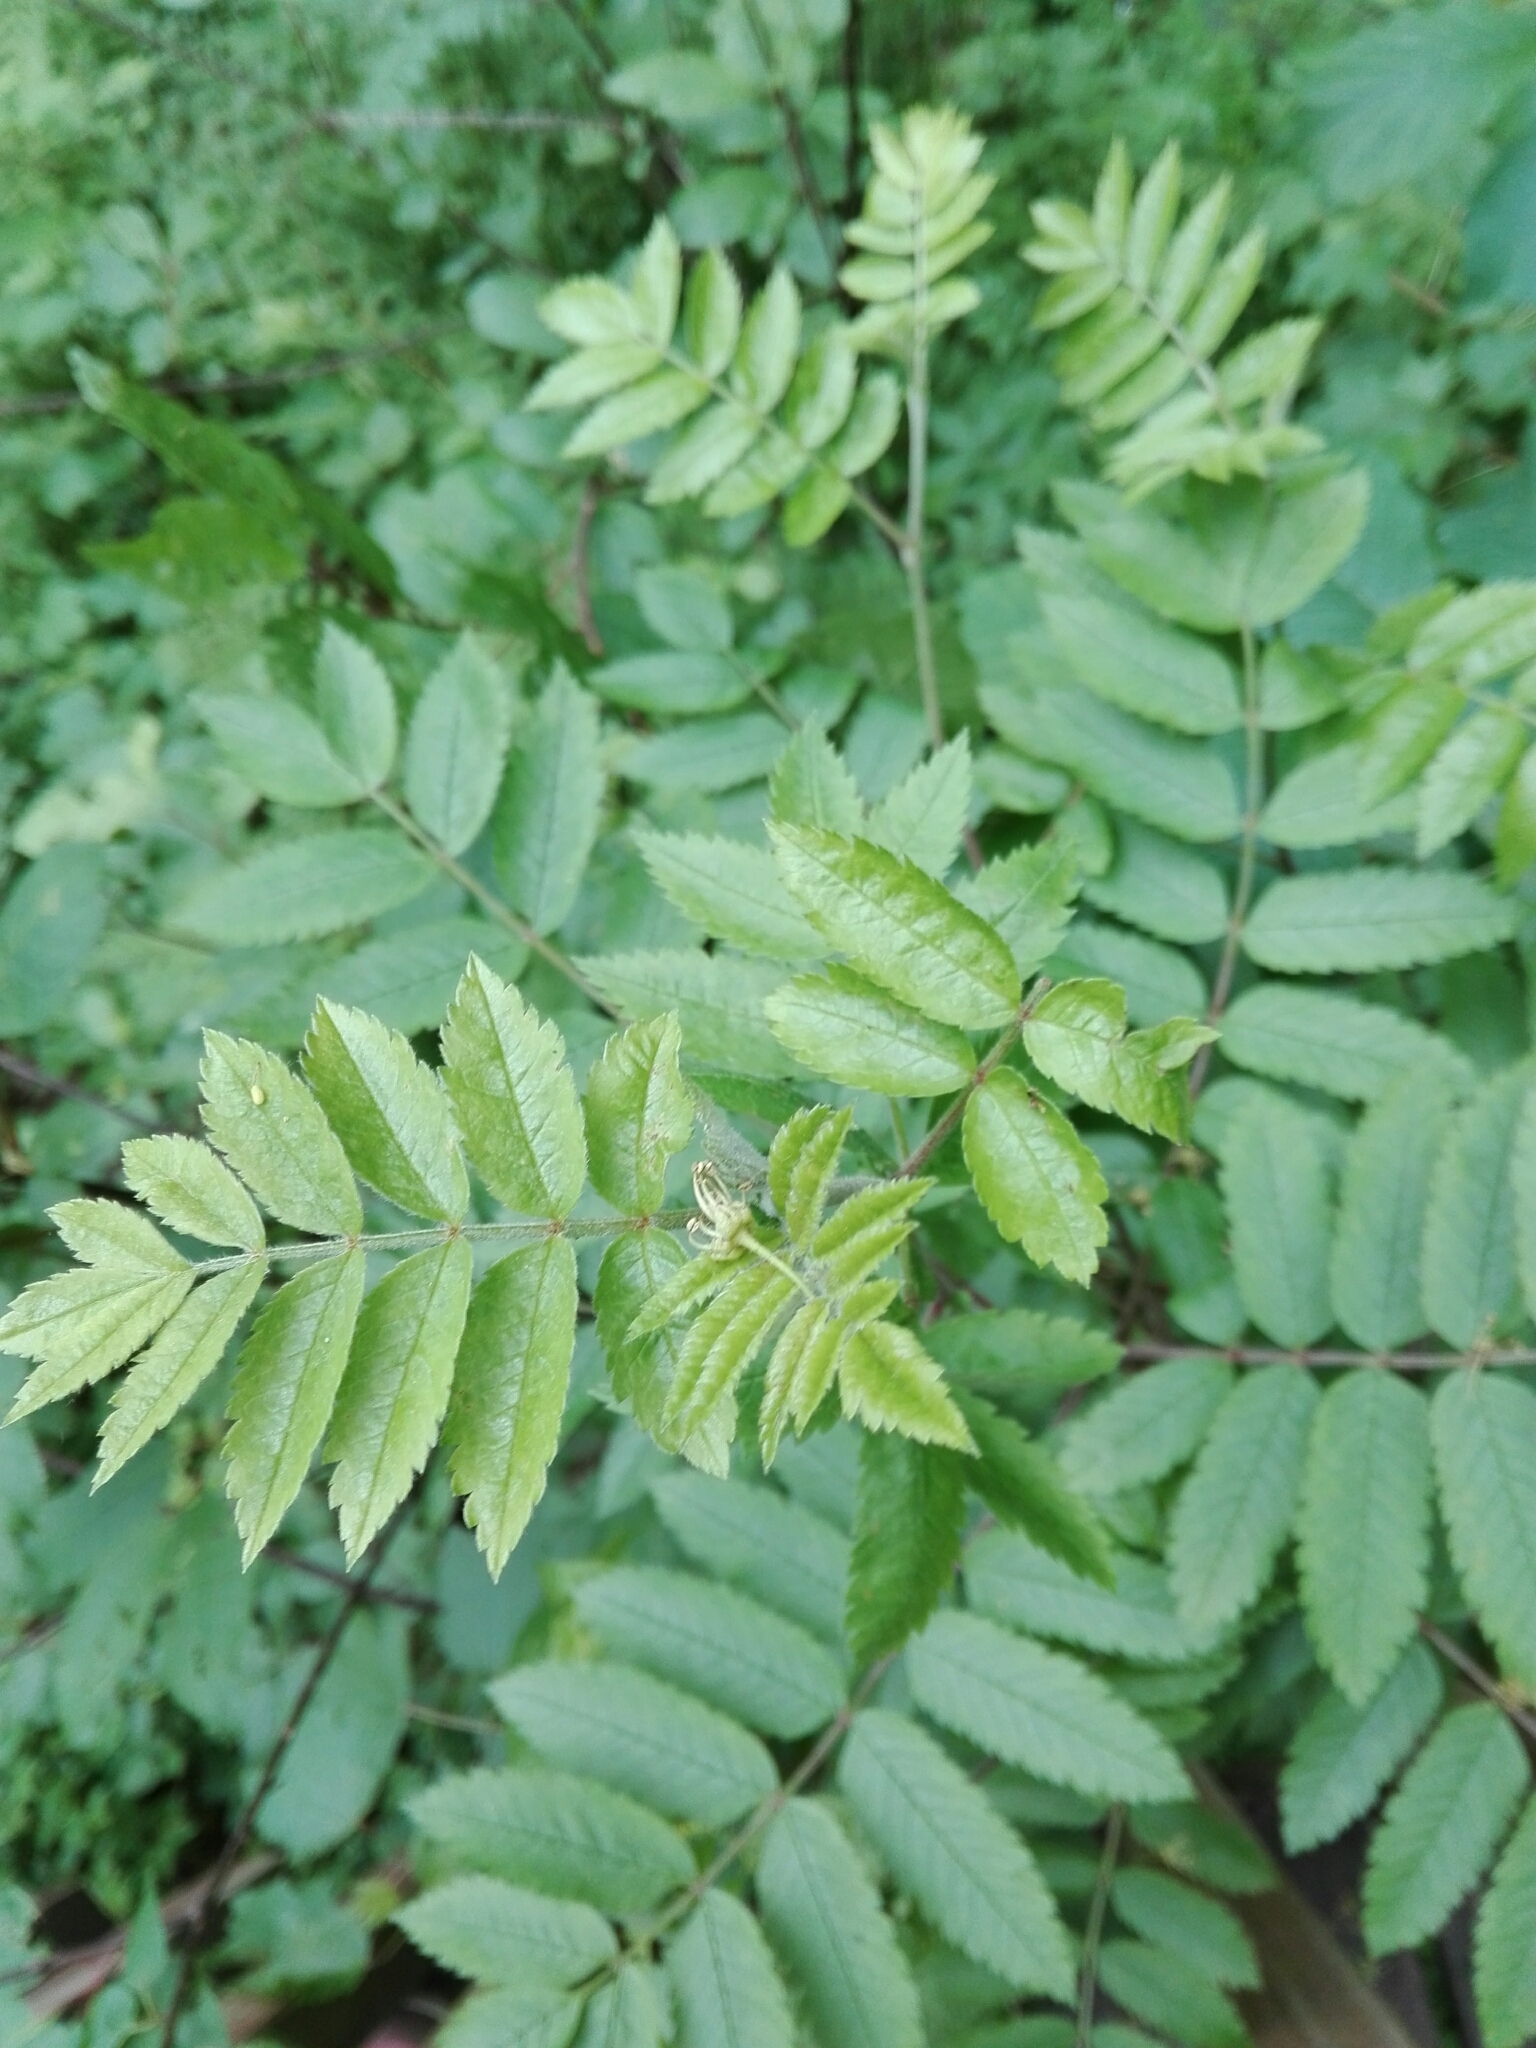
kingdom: Plantae
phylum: Tracheophyta
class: Magnoliopsida
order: Rosales
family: Rosaceae
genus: Sorbus
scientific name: Sorbus aucuparia
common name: Rowan
